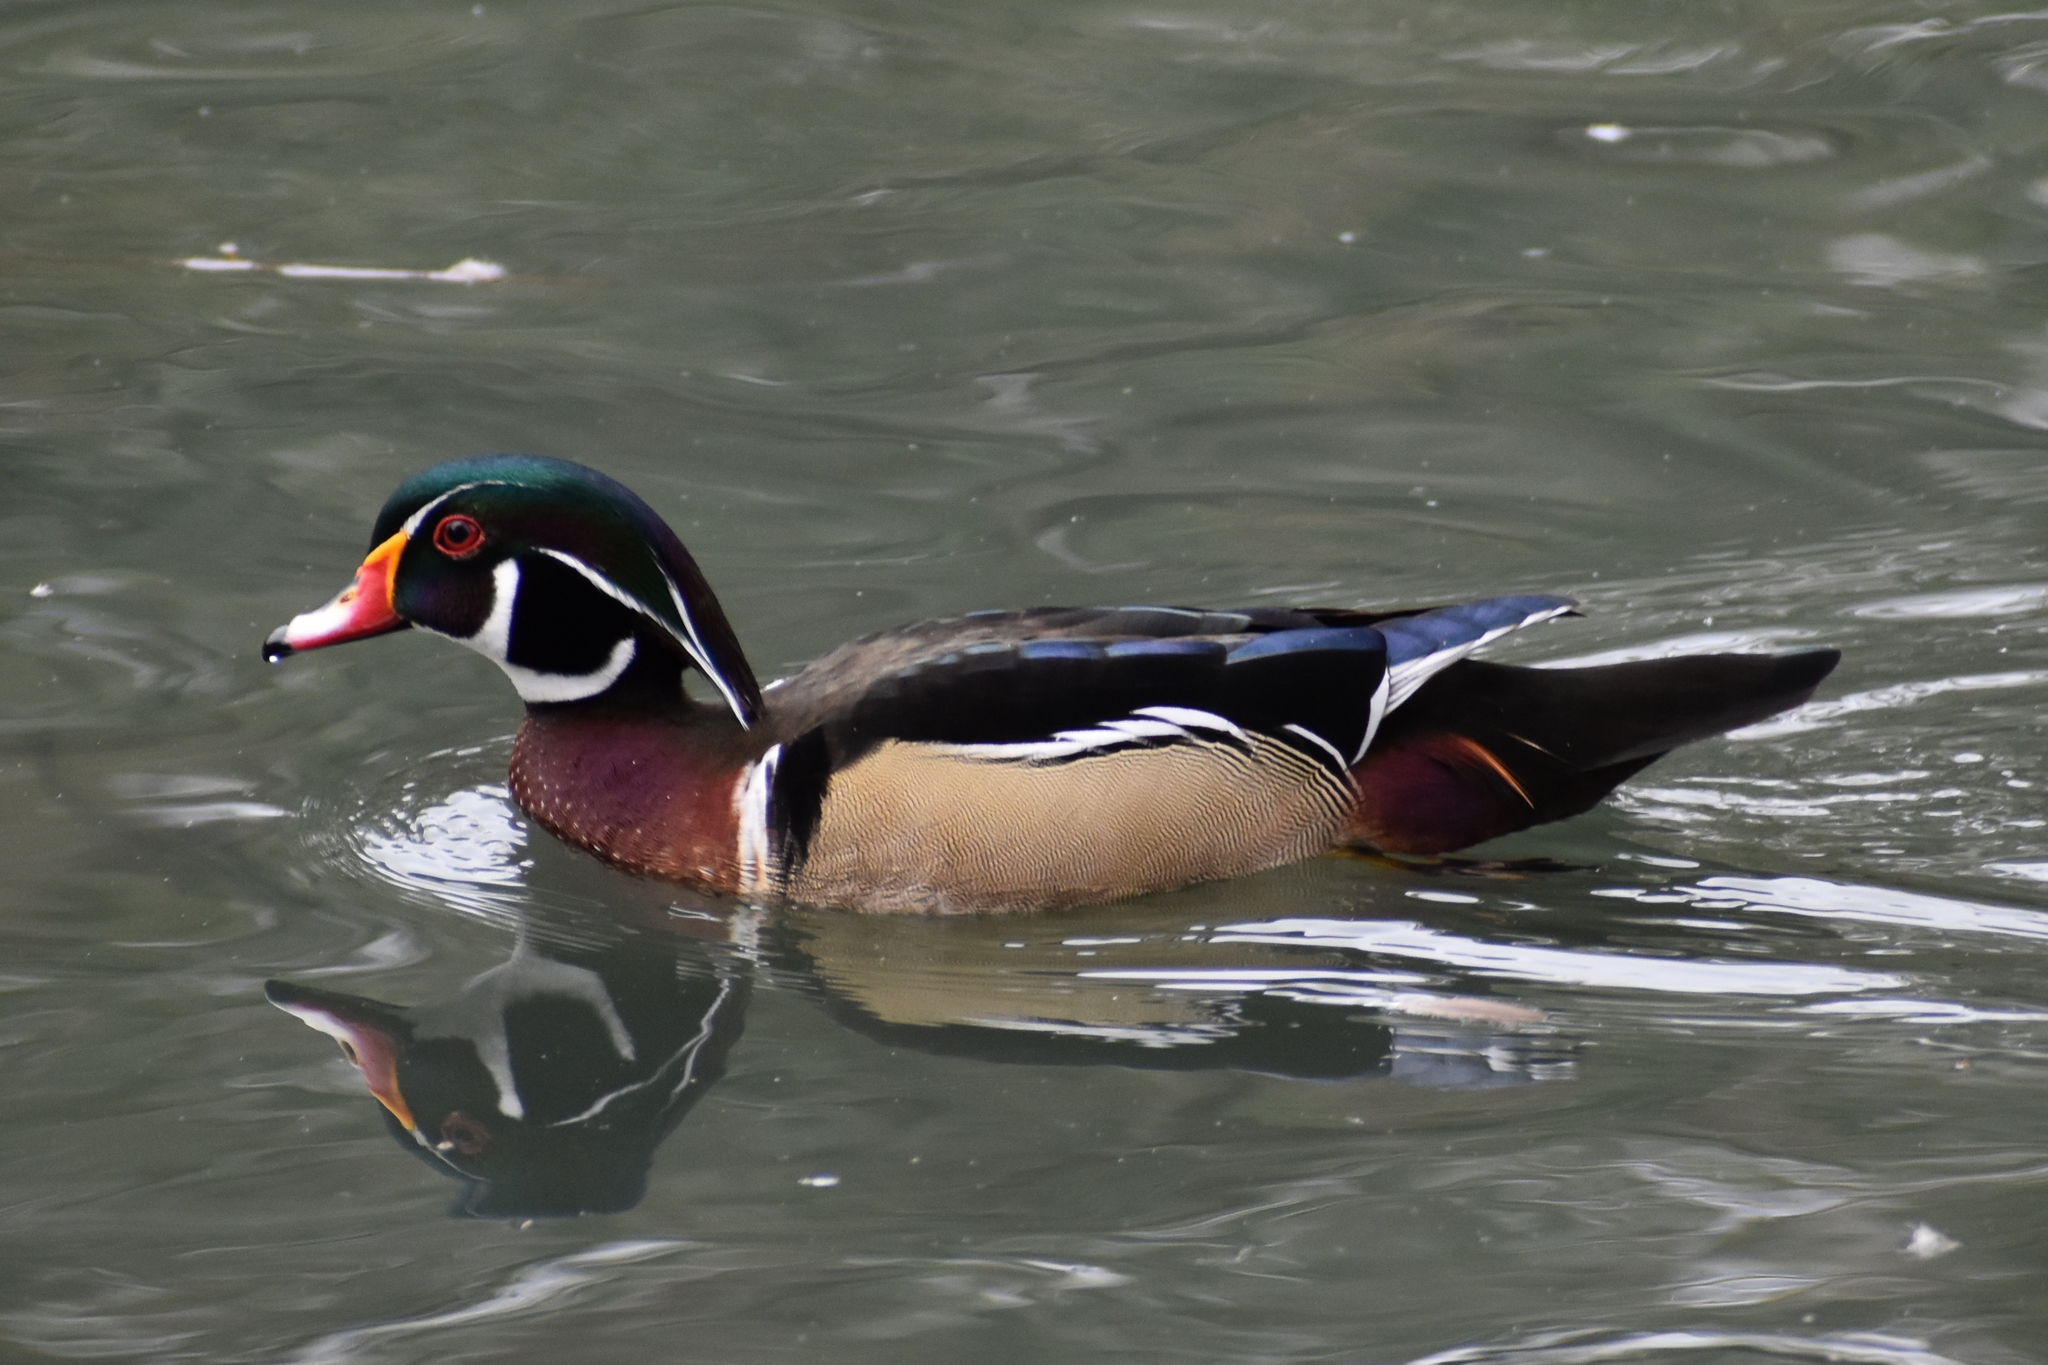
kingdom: Animalia
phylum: Chordata
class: Aves
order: Anseriformes
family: Anatidae
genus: Aix
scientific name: Aix sponsa
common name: Wood duck
